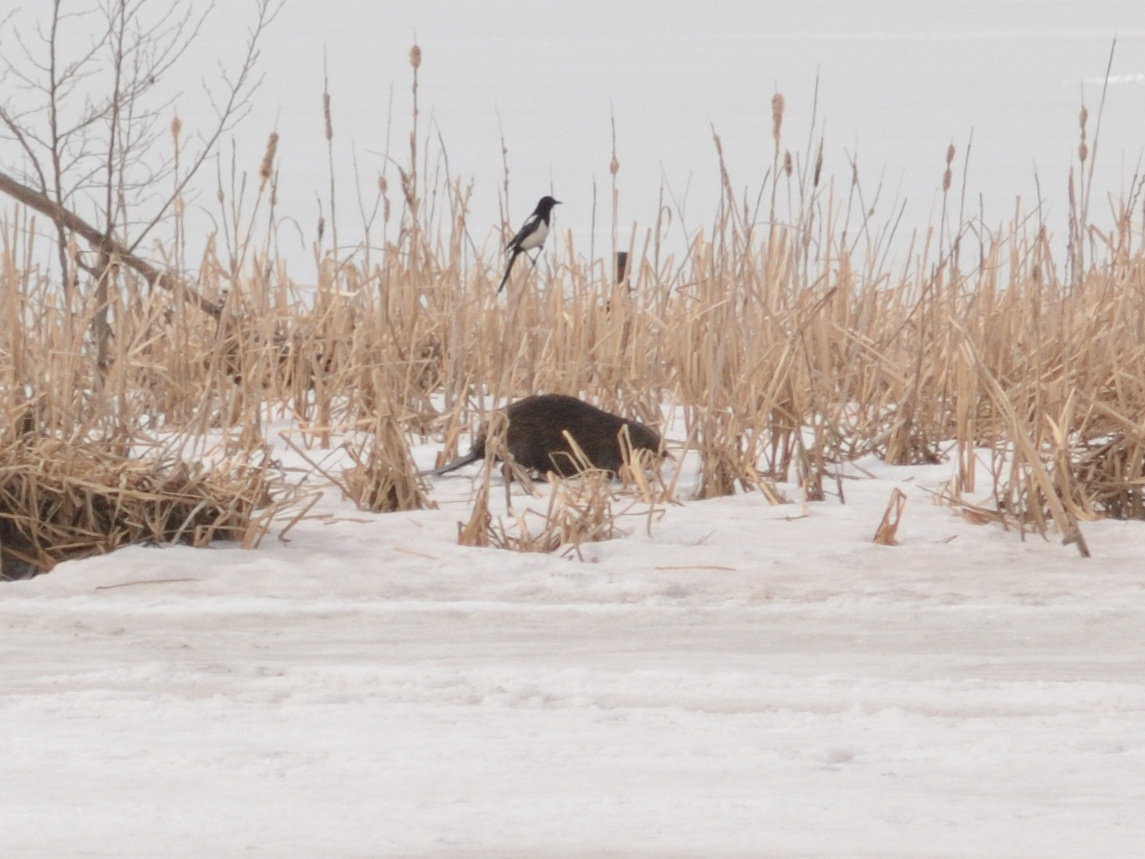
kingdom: Animalia
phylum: Chordata
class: Mammalia
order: Rodentia
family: Castoridae
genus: Castor
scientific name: Castor fiber
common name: Eurasian beaver
